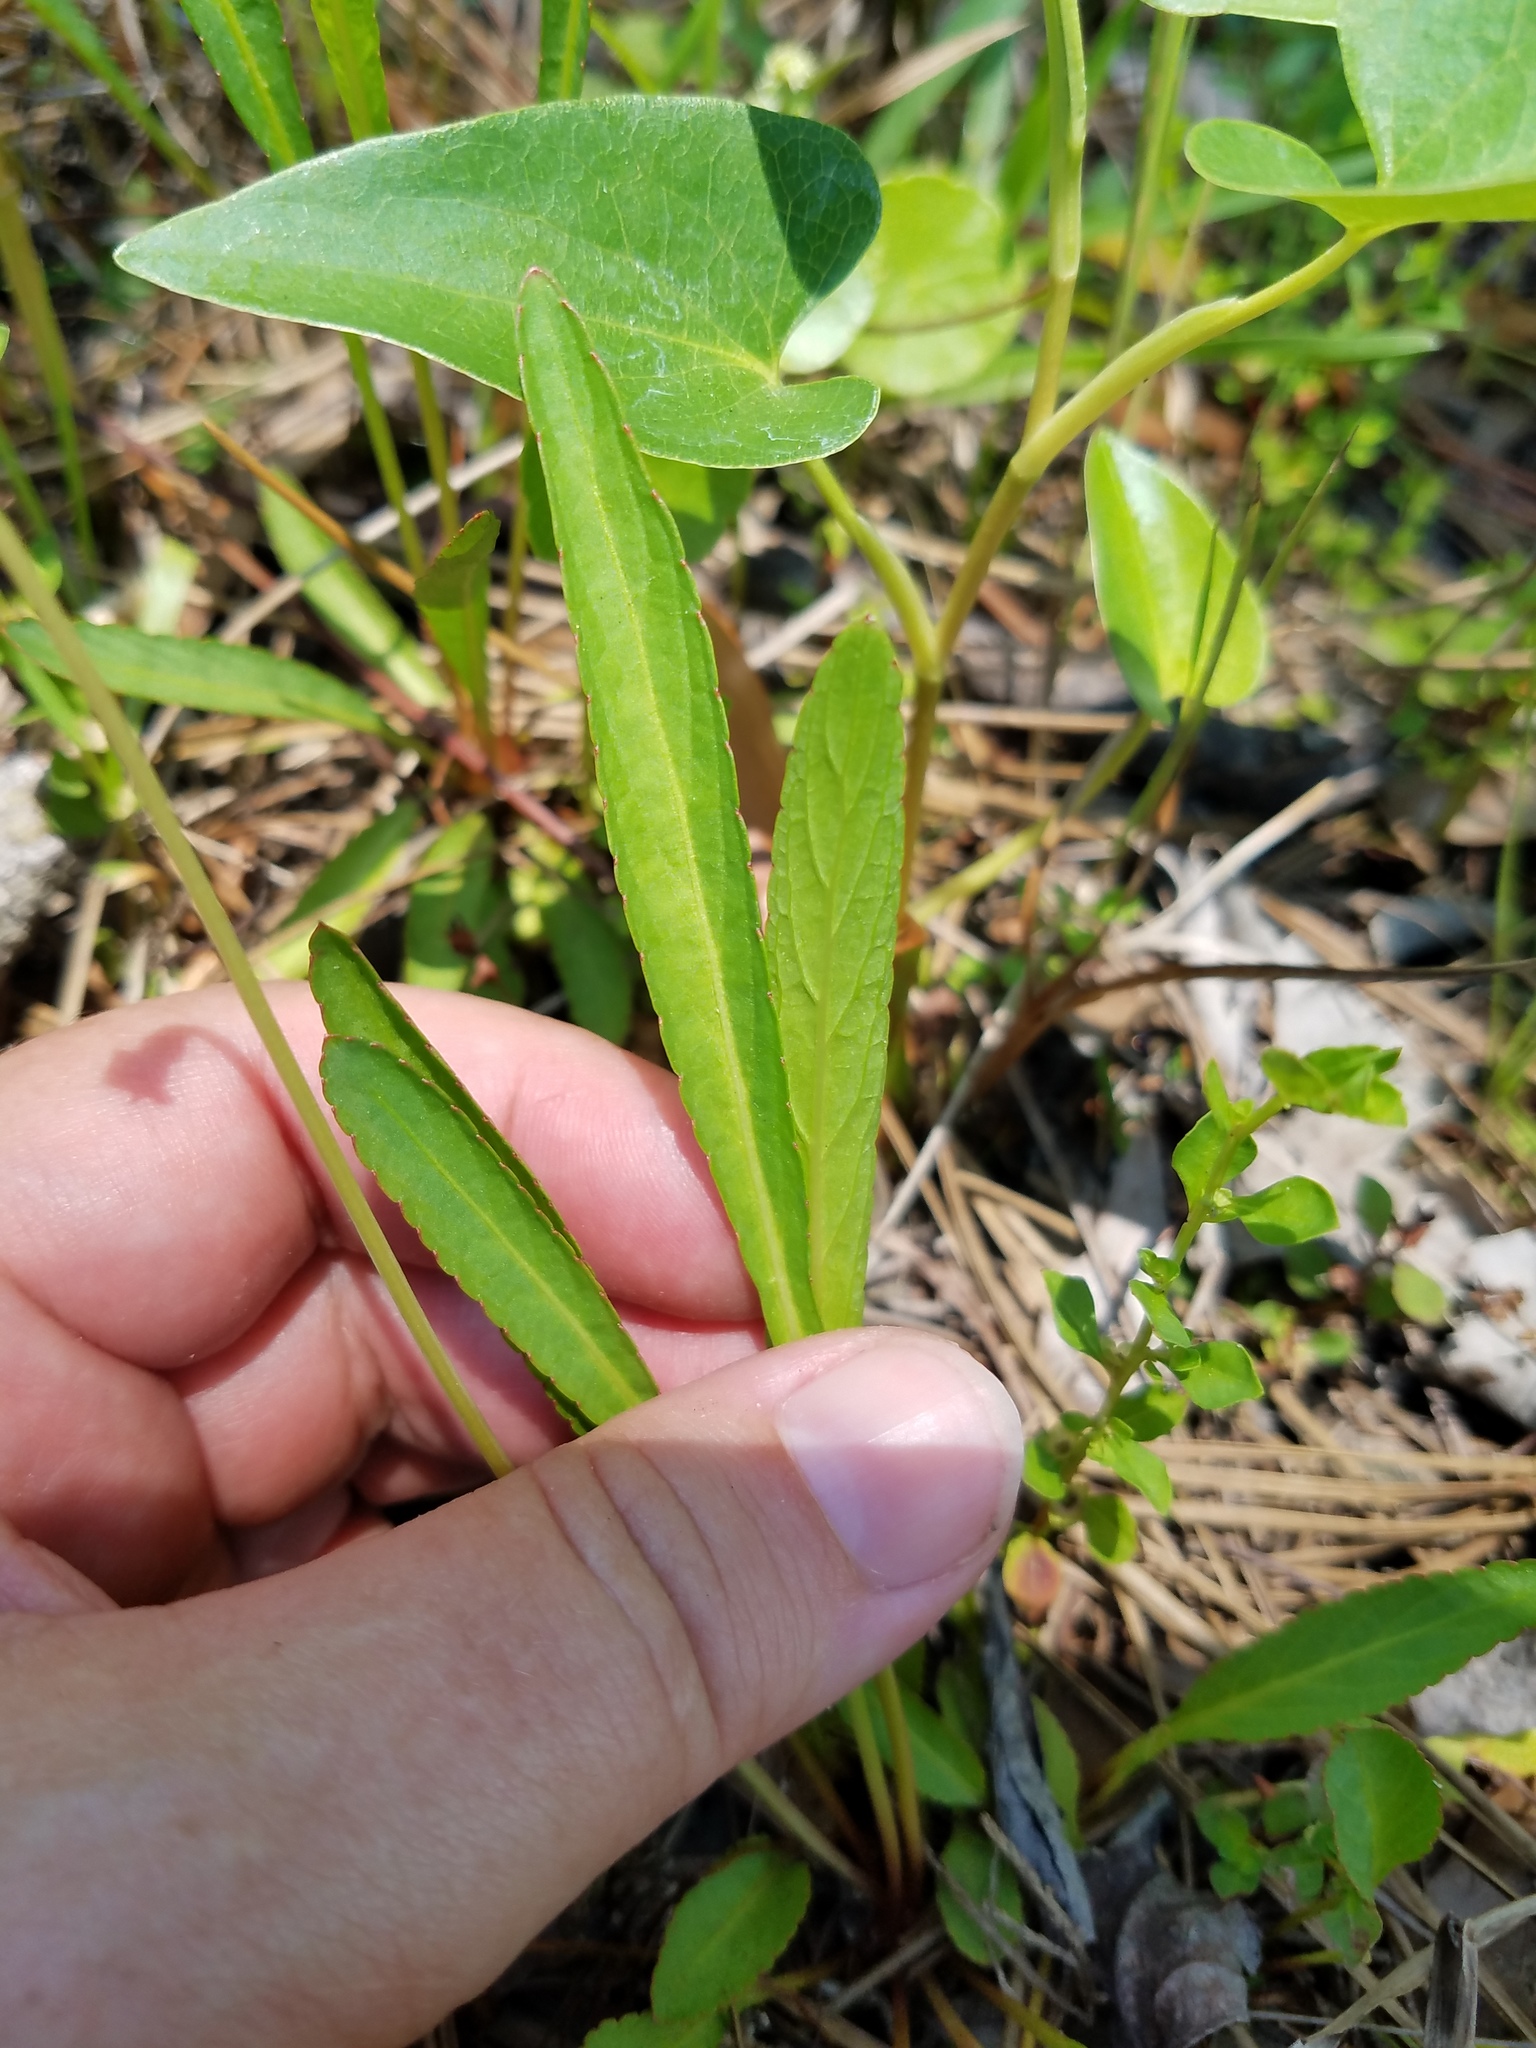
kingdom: Plantae
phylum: Tracheophyta
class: Magnoliopsida
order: Malpighiales
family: Violaceae
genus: Viola
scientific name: Viola vittata
